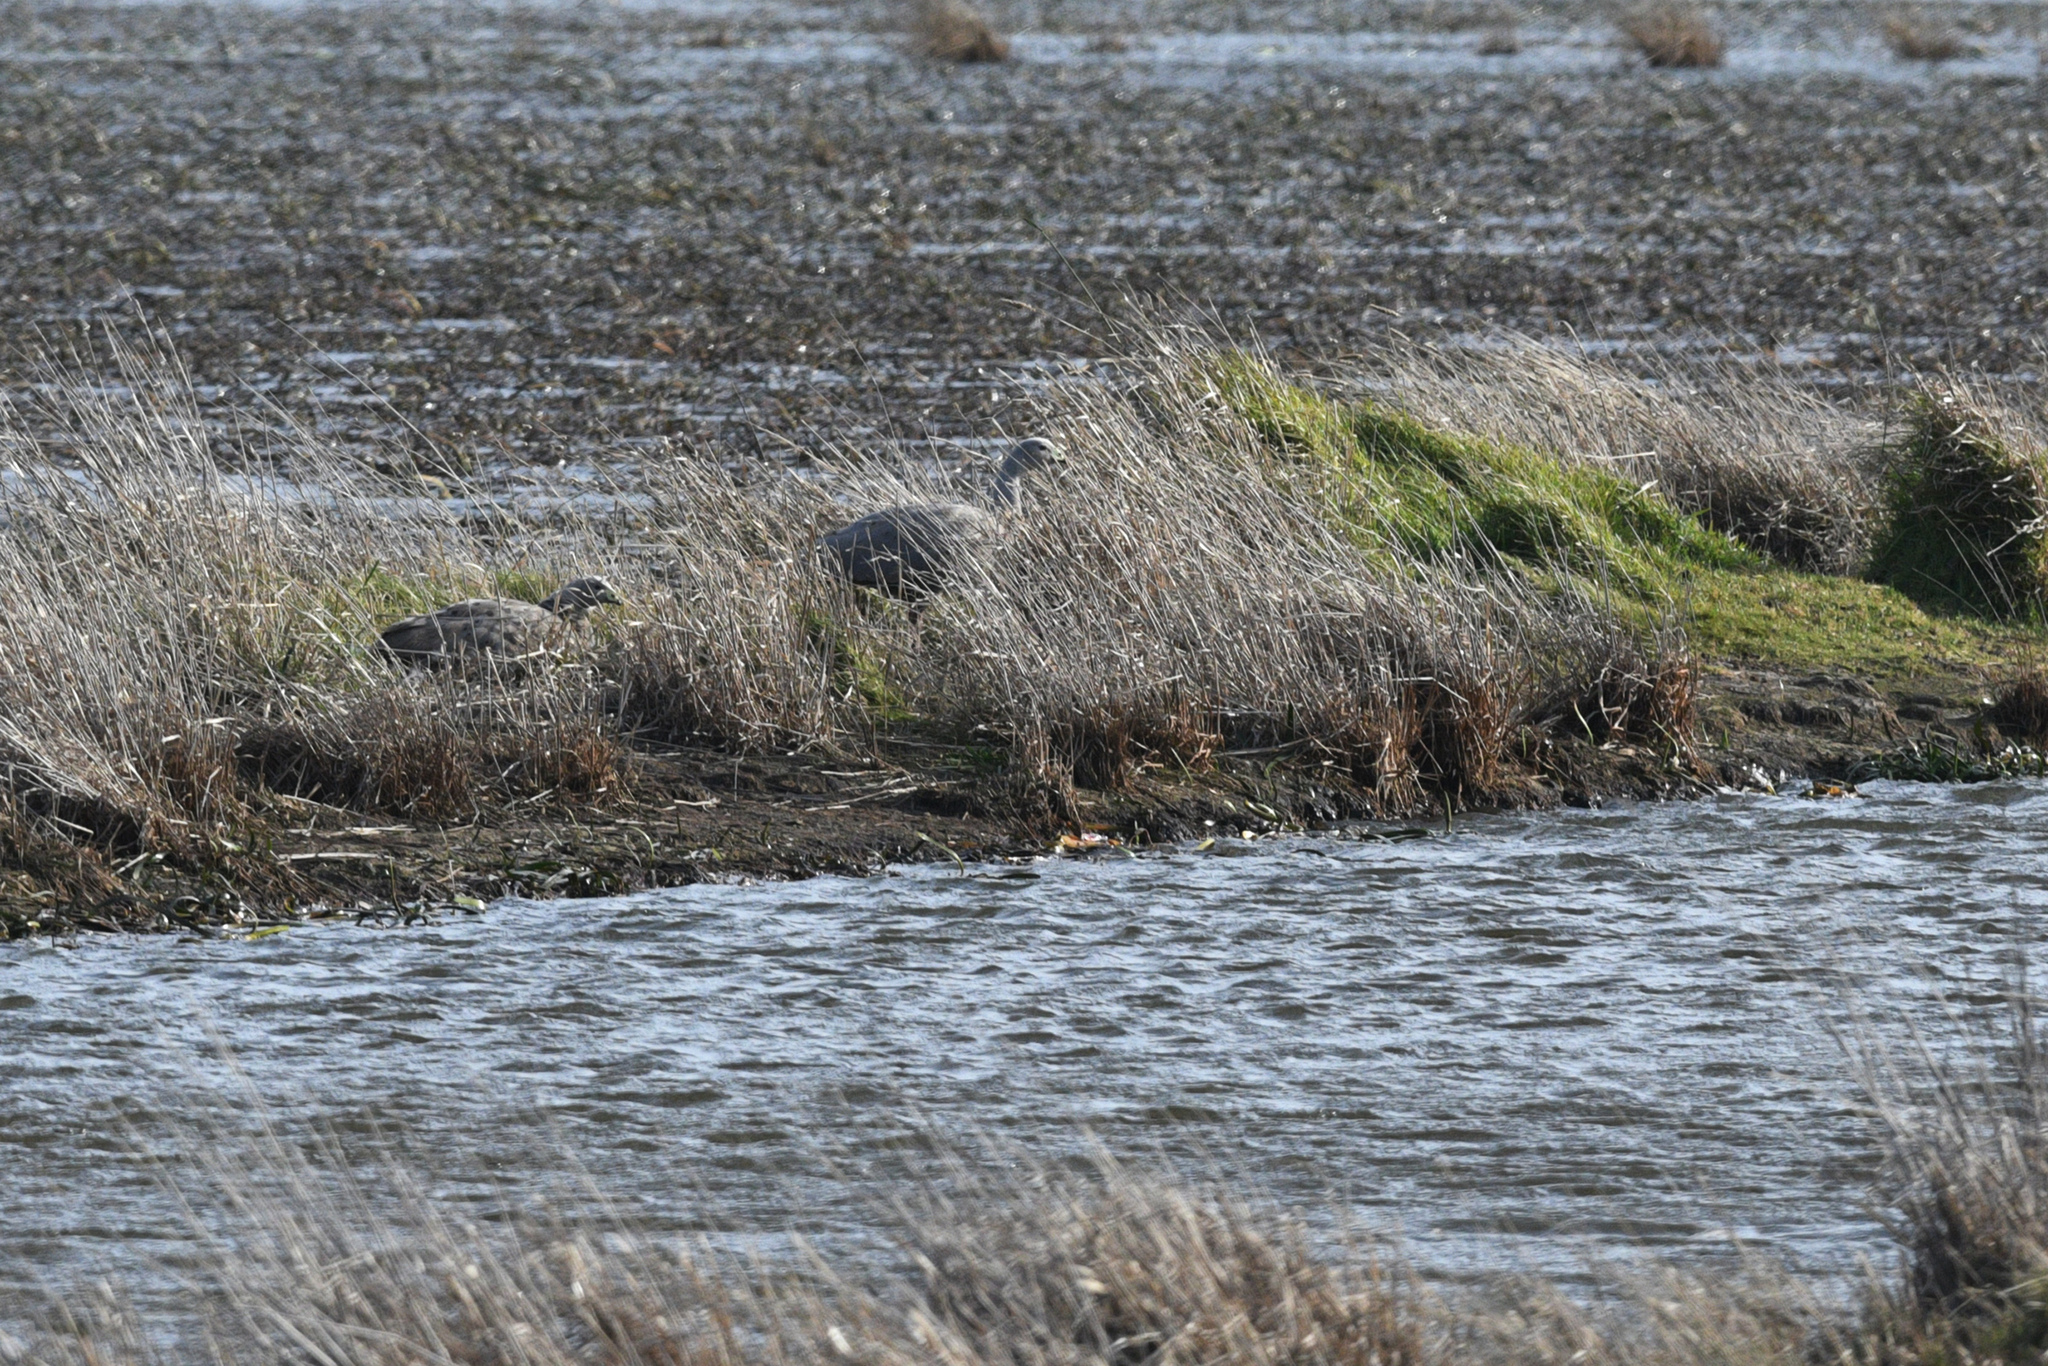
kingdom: Animalia
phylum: Chordata
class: Aves
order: Anseriformes
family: Anatidae
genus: Cereopsis
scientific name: Cereopsis novaehollandiae
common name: Cape barren goose
